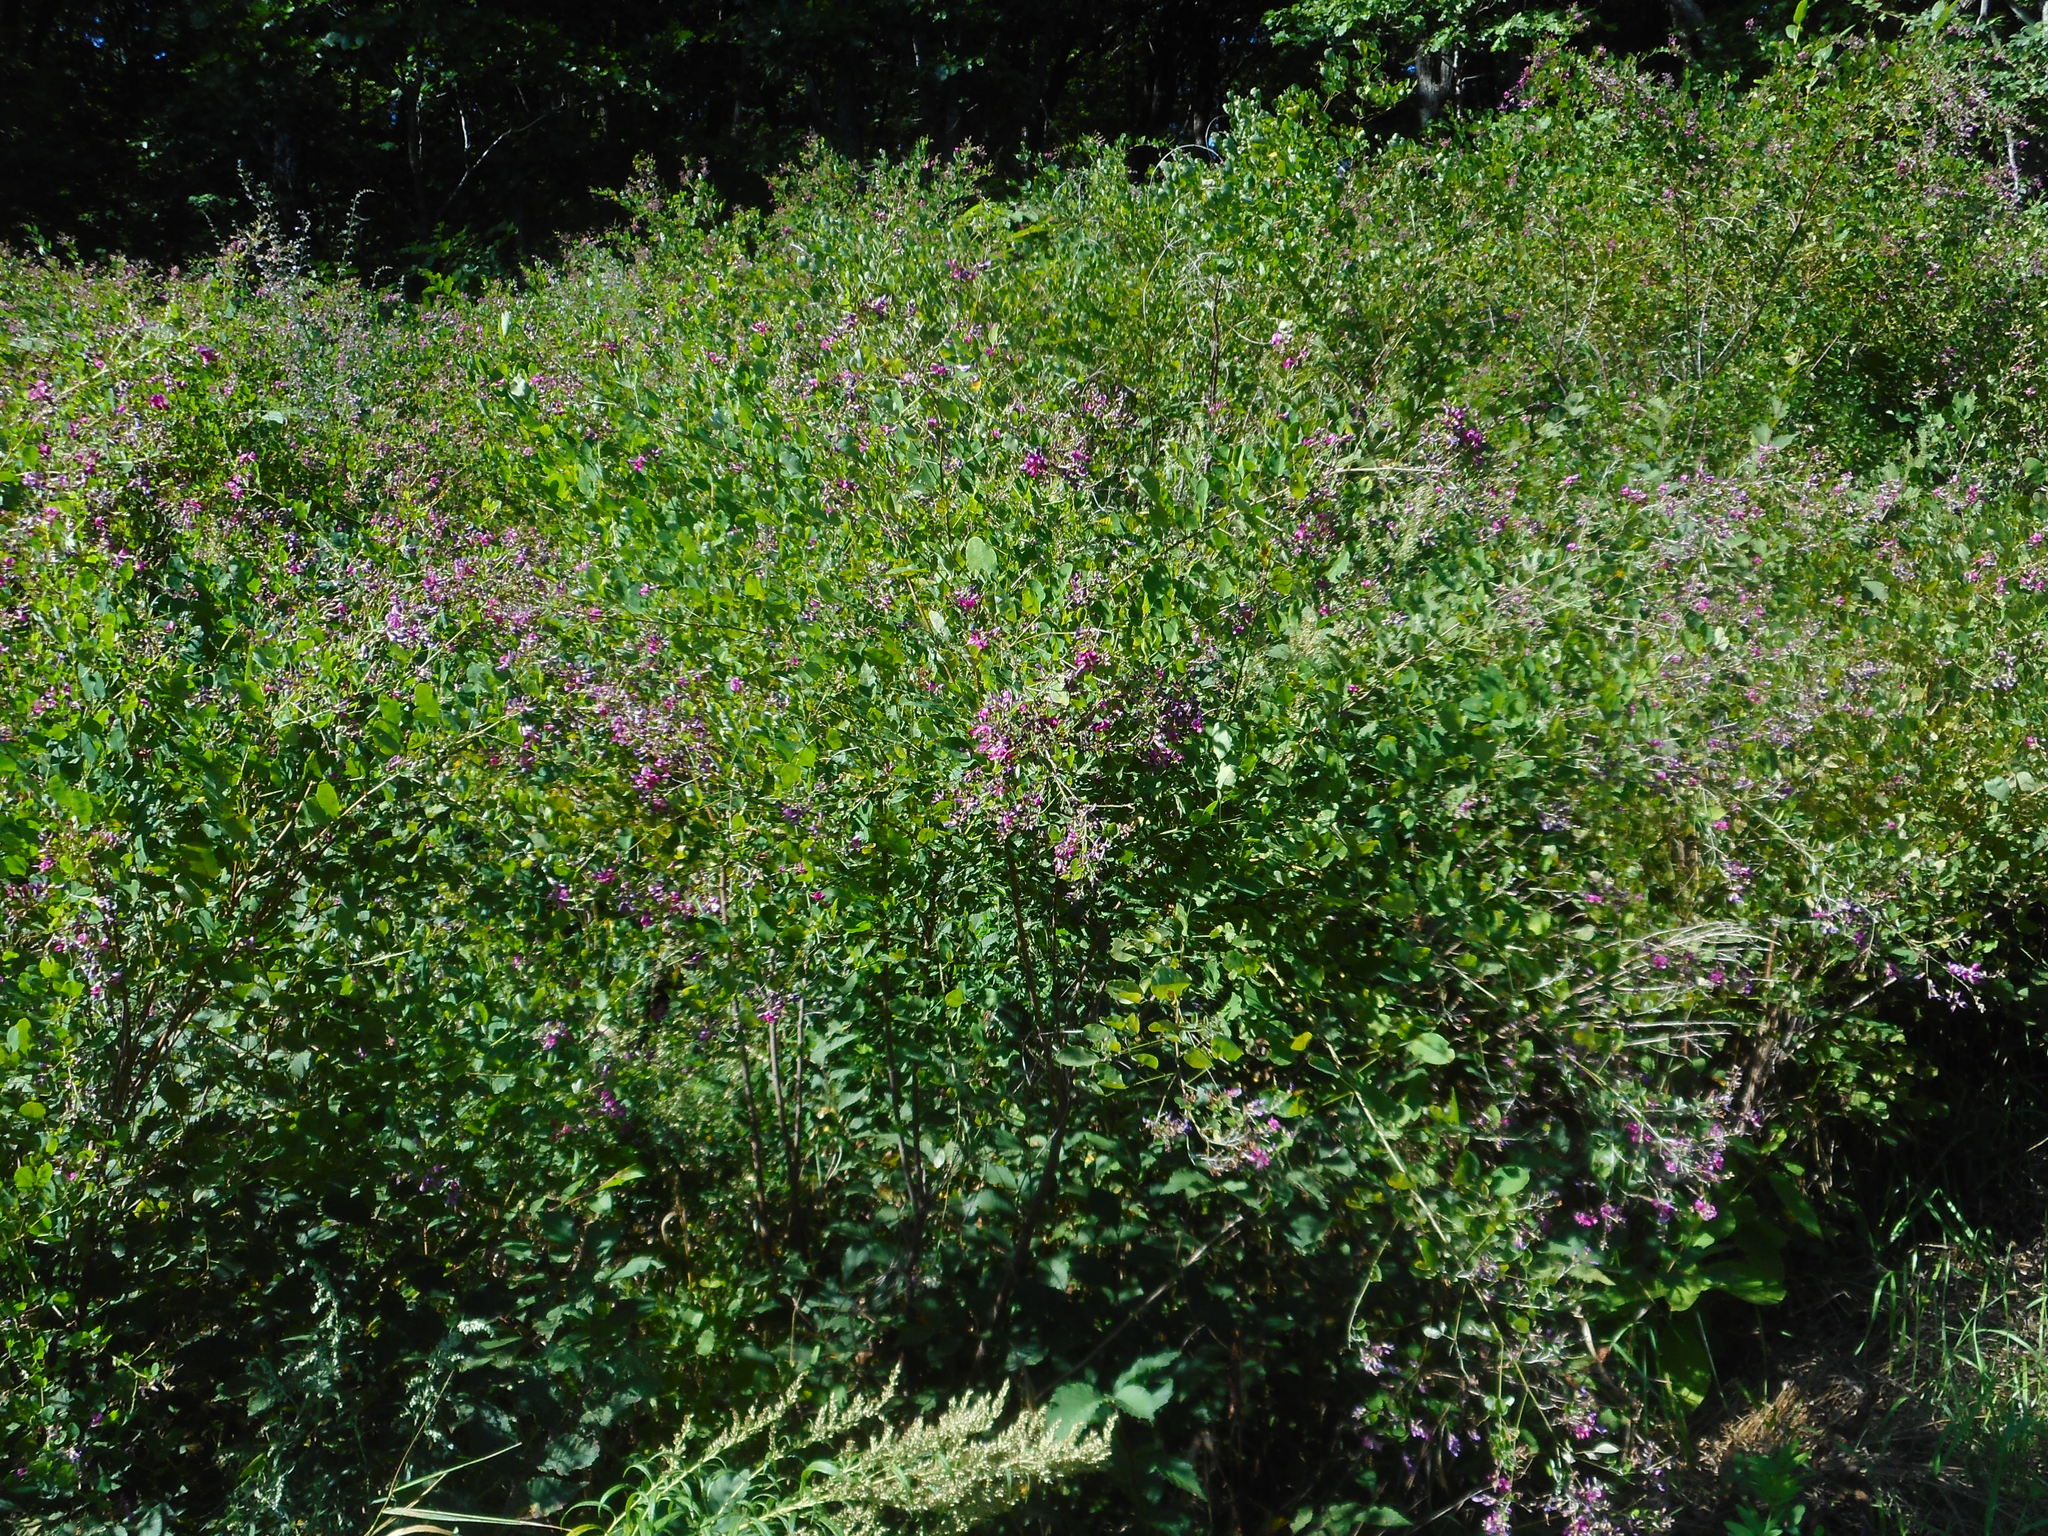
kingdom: Plantae
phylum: Tracheophyta
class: Magnoliopsida
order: Fabales
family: Fabaceae
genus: Lespedeza
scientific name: Lespedeza bicolor
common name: Shrub lespedeza
